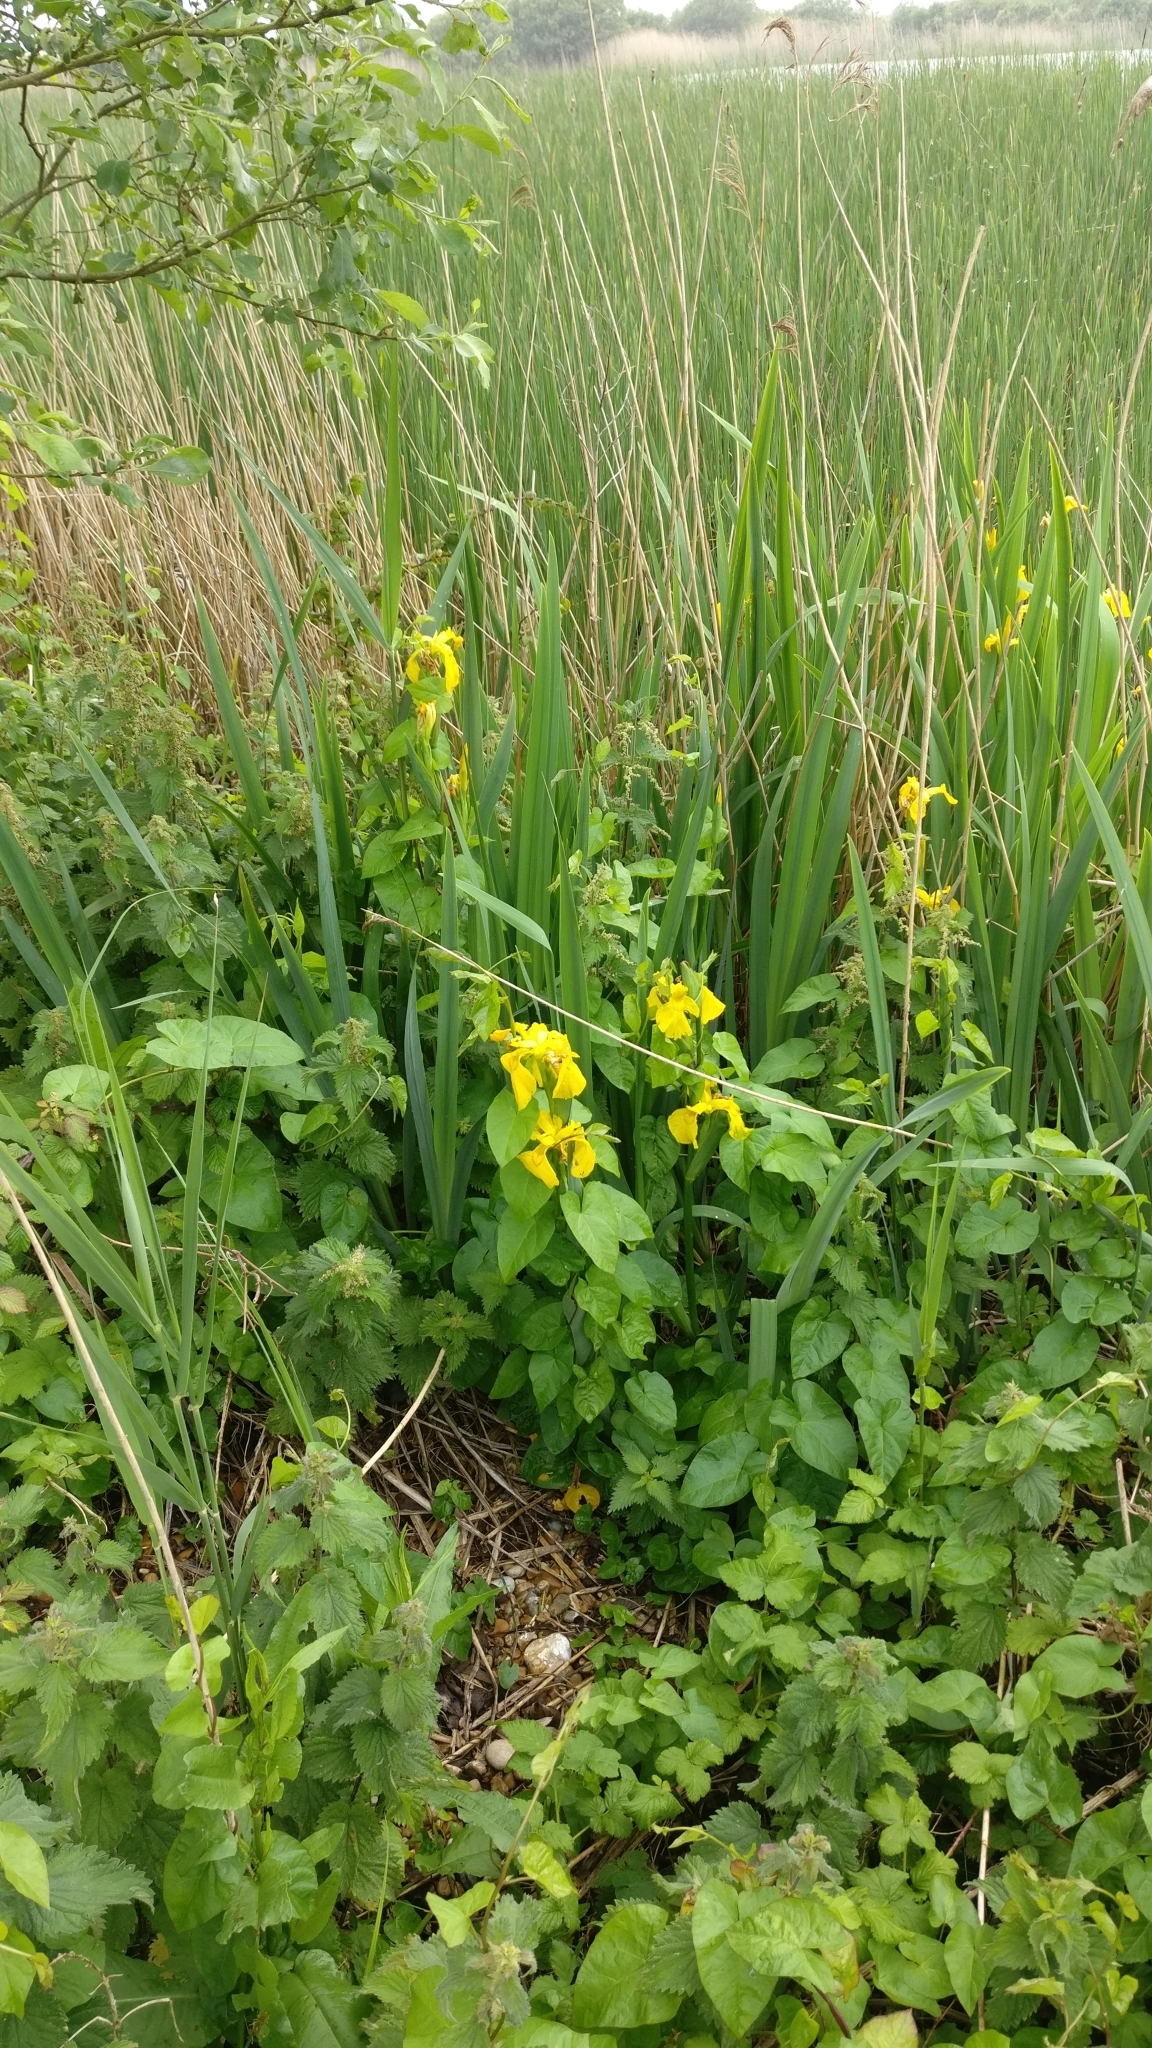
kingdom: Plantae
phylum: Tracheophyta
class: Liliopsida
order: Asparagales
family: Iridaceae
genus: Iris
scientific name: Iris pseudacorus
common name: Yellow flag
